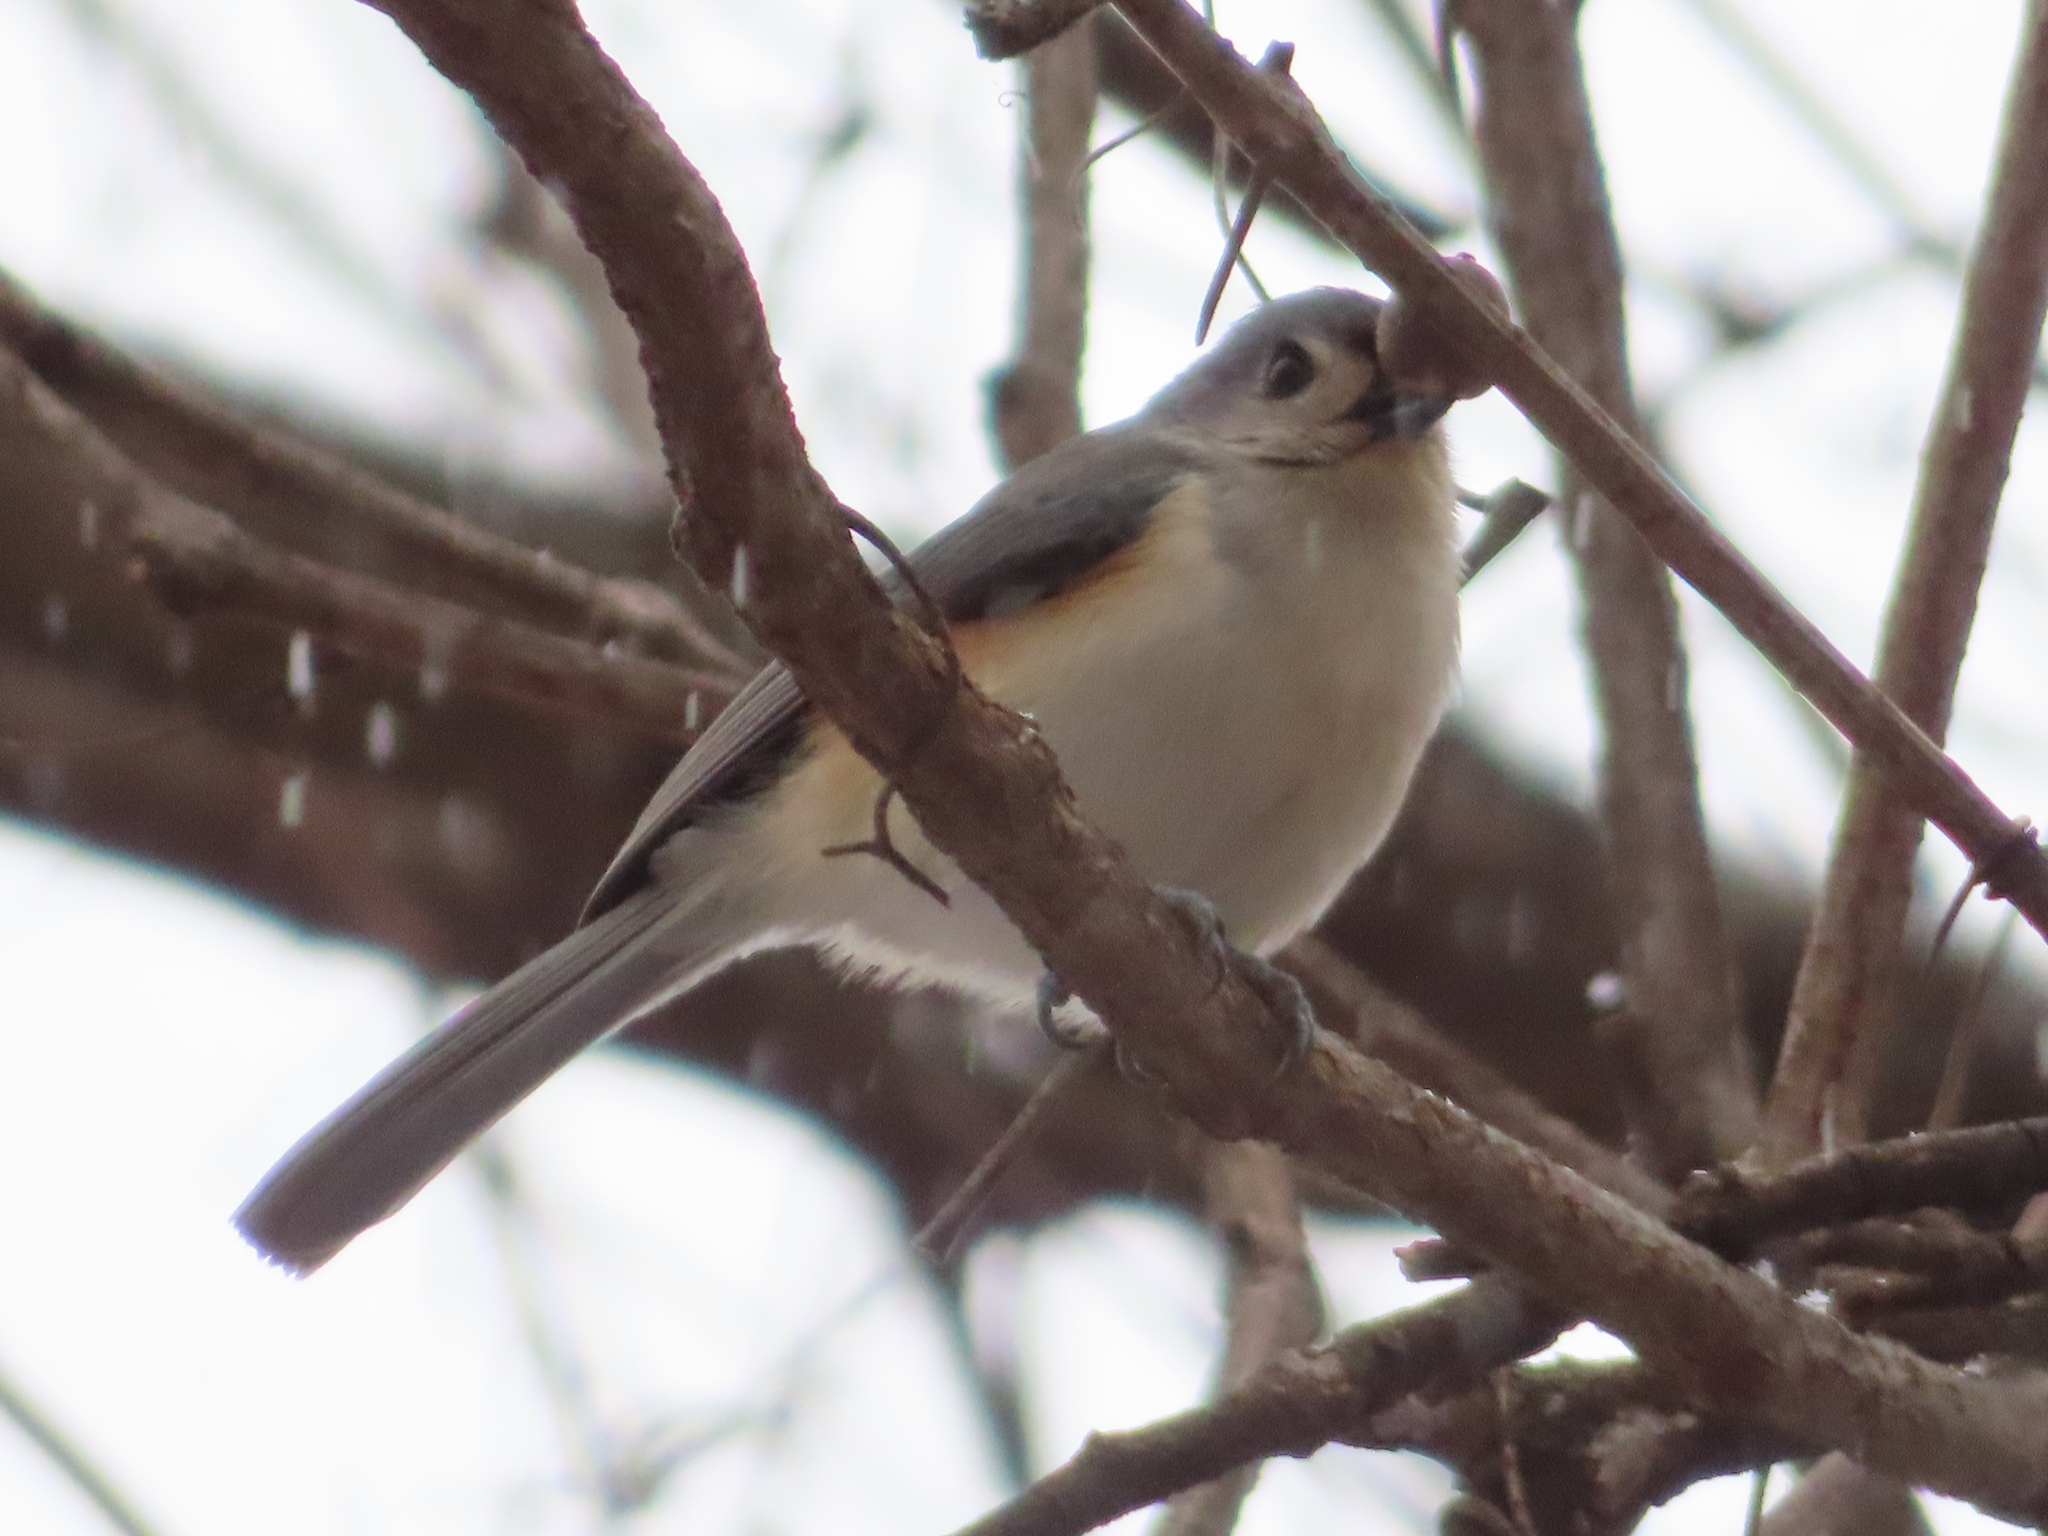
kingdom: Animalia
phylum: Chordata
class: Aves
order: Passeriformes
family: Paridae
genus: Baeolophus
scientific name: Baeolophus bicolor
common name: Tufted titmouse
